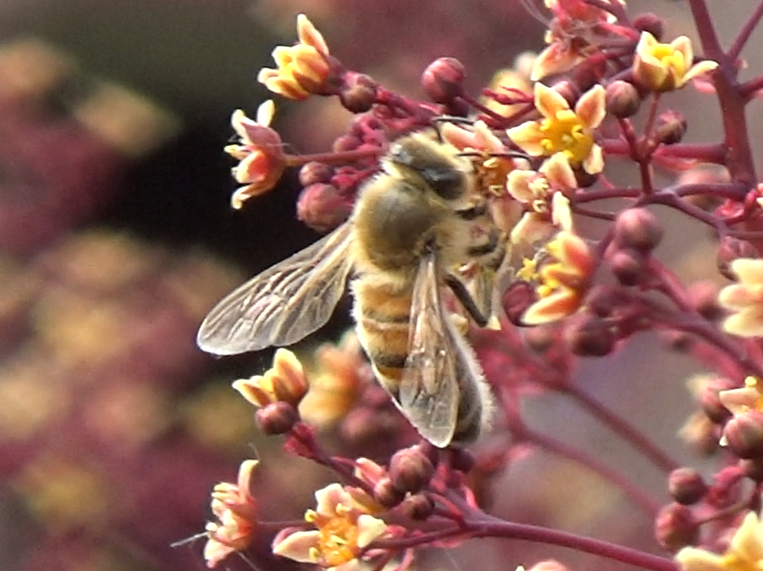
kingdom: Animalia
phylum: Arthropoda
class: Insecta
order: Hymenoptera
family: Apidae
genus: Apis
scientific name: Apis mellifera
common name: Honey bee
